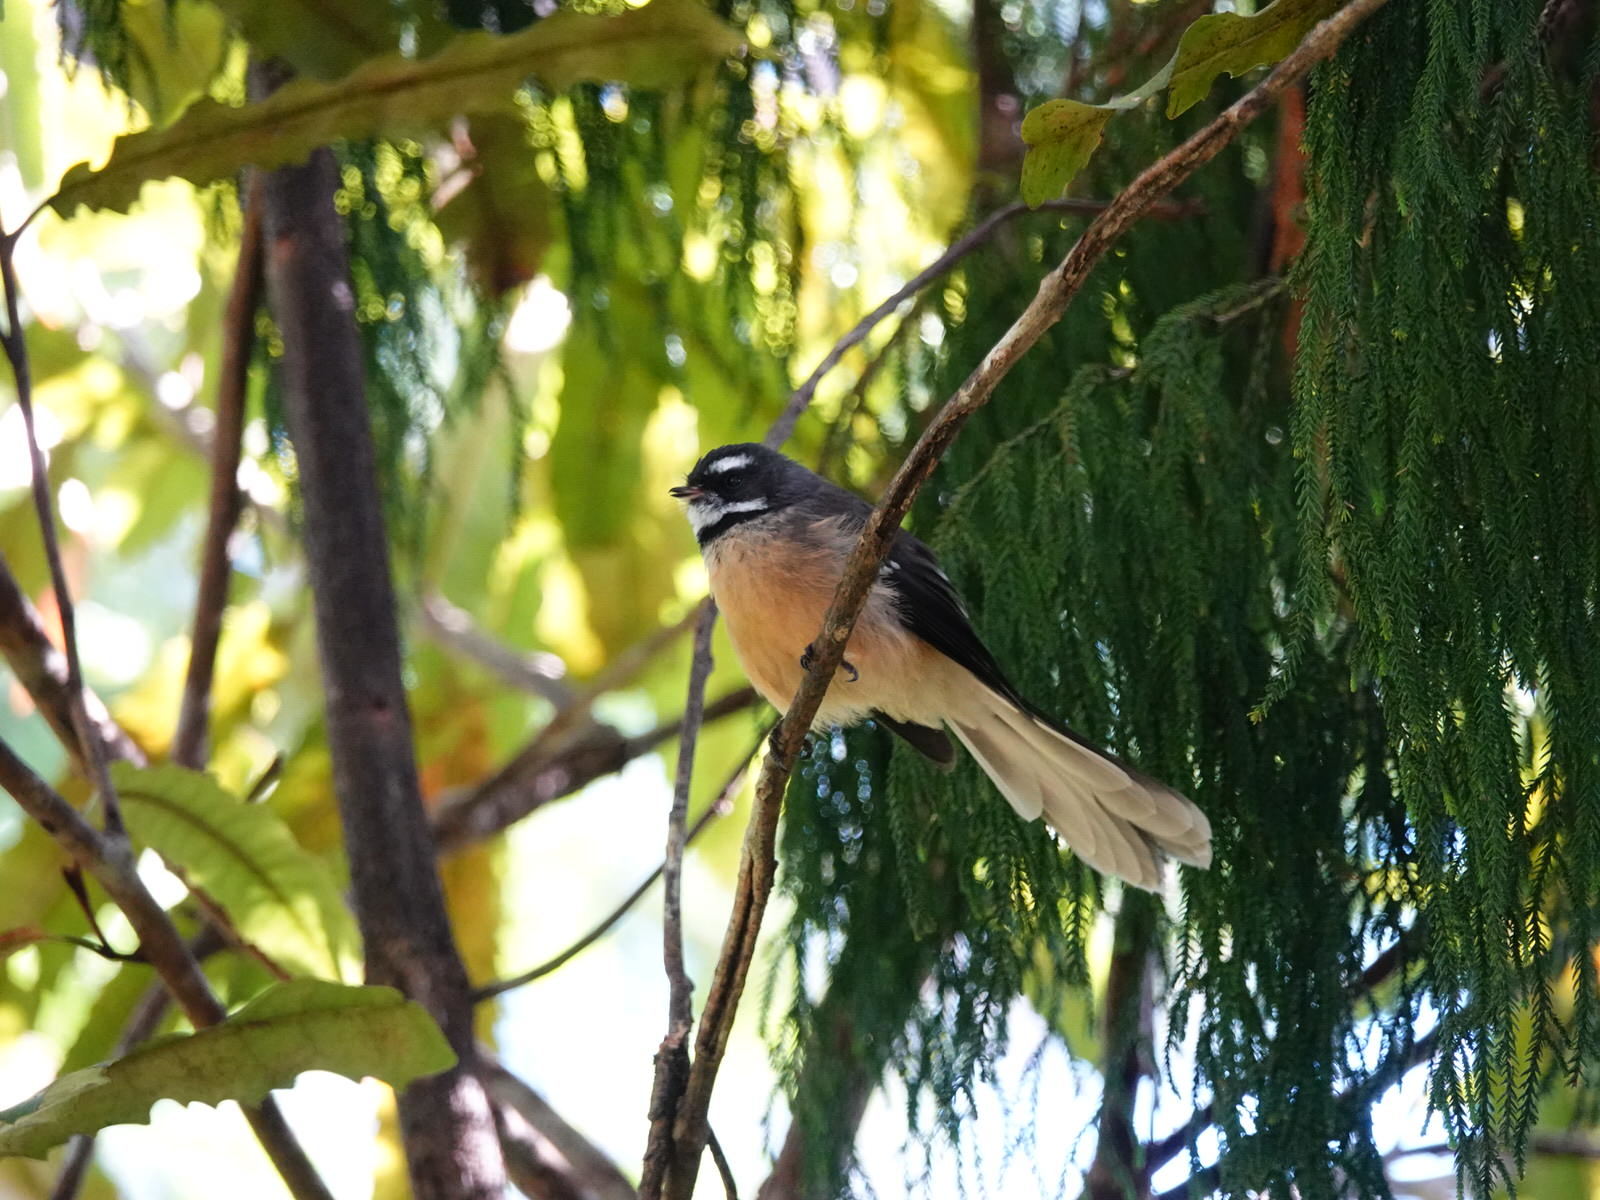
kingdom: Animalia
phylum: Chordata
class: Aves
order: Passeriformes
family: Rhipiduridae
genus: Rhipidura
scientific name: Rhipidura fuliginosa
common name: New zealand fantail
